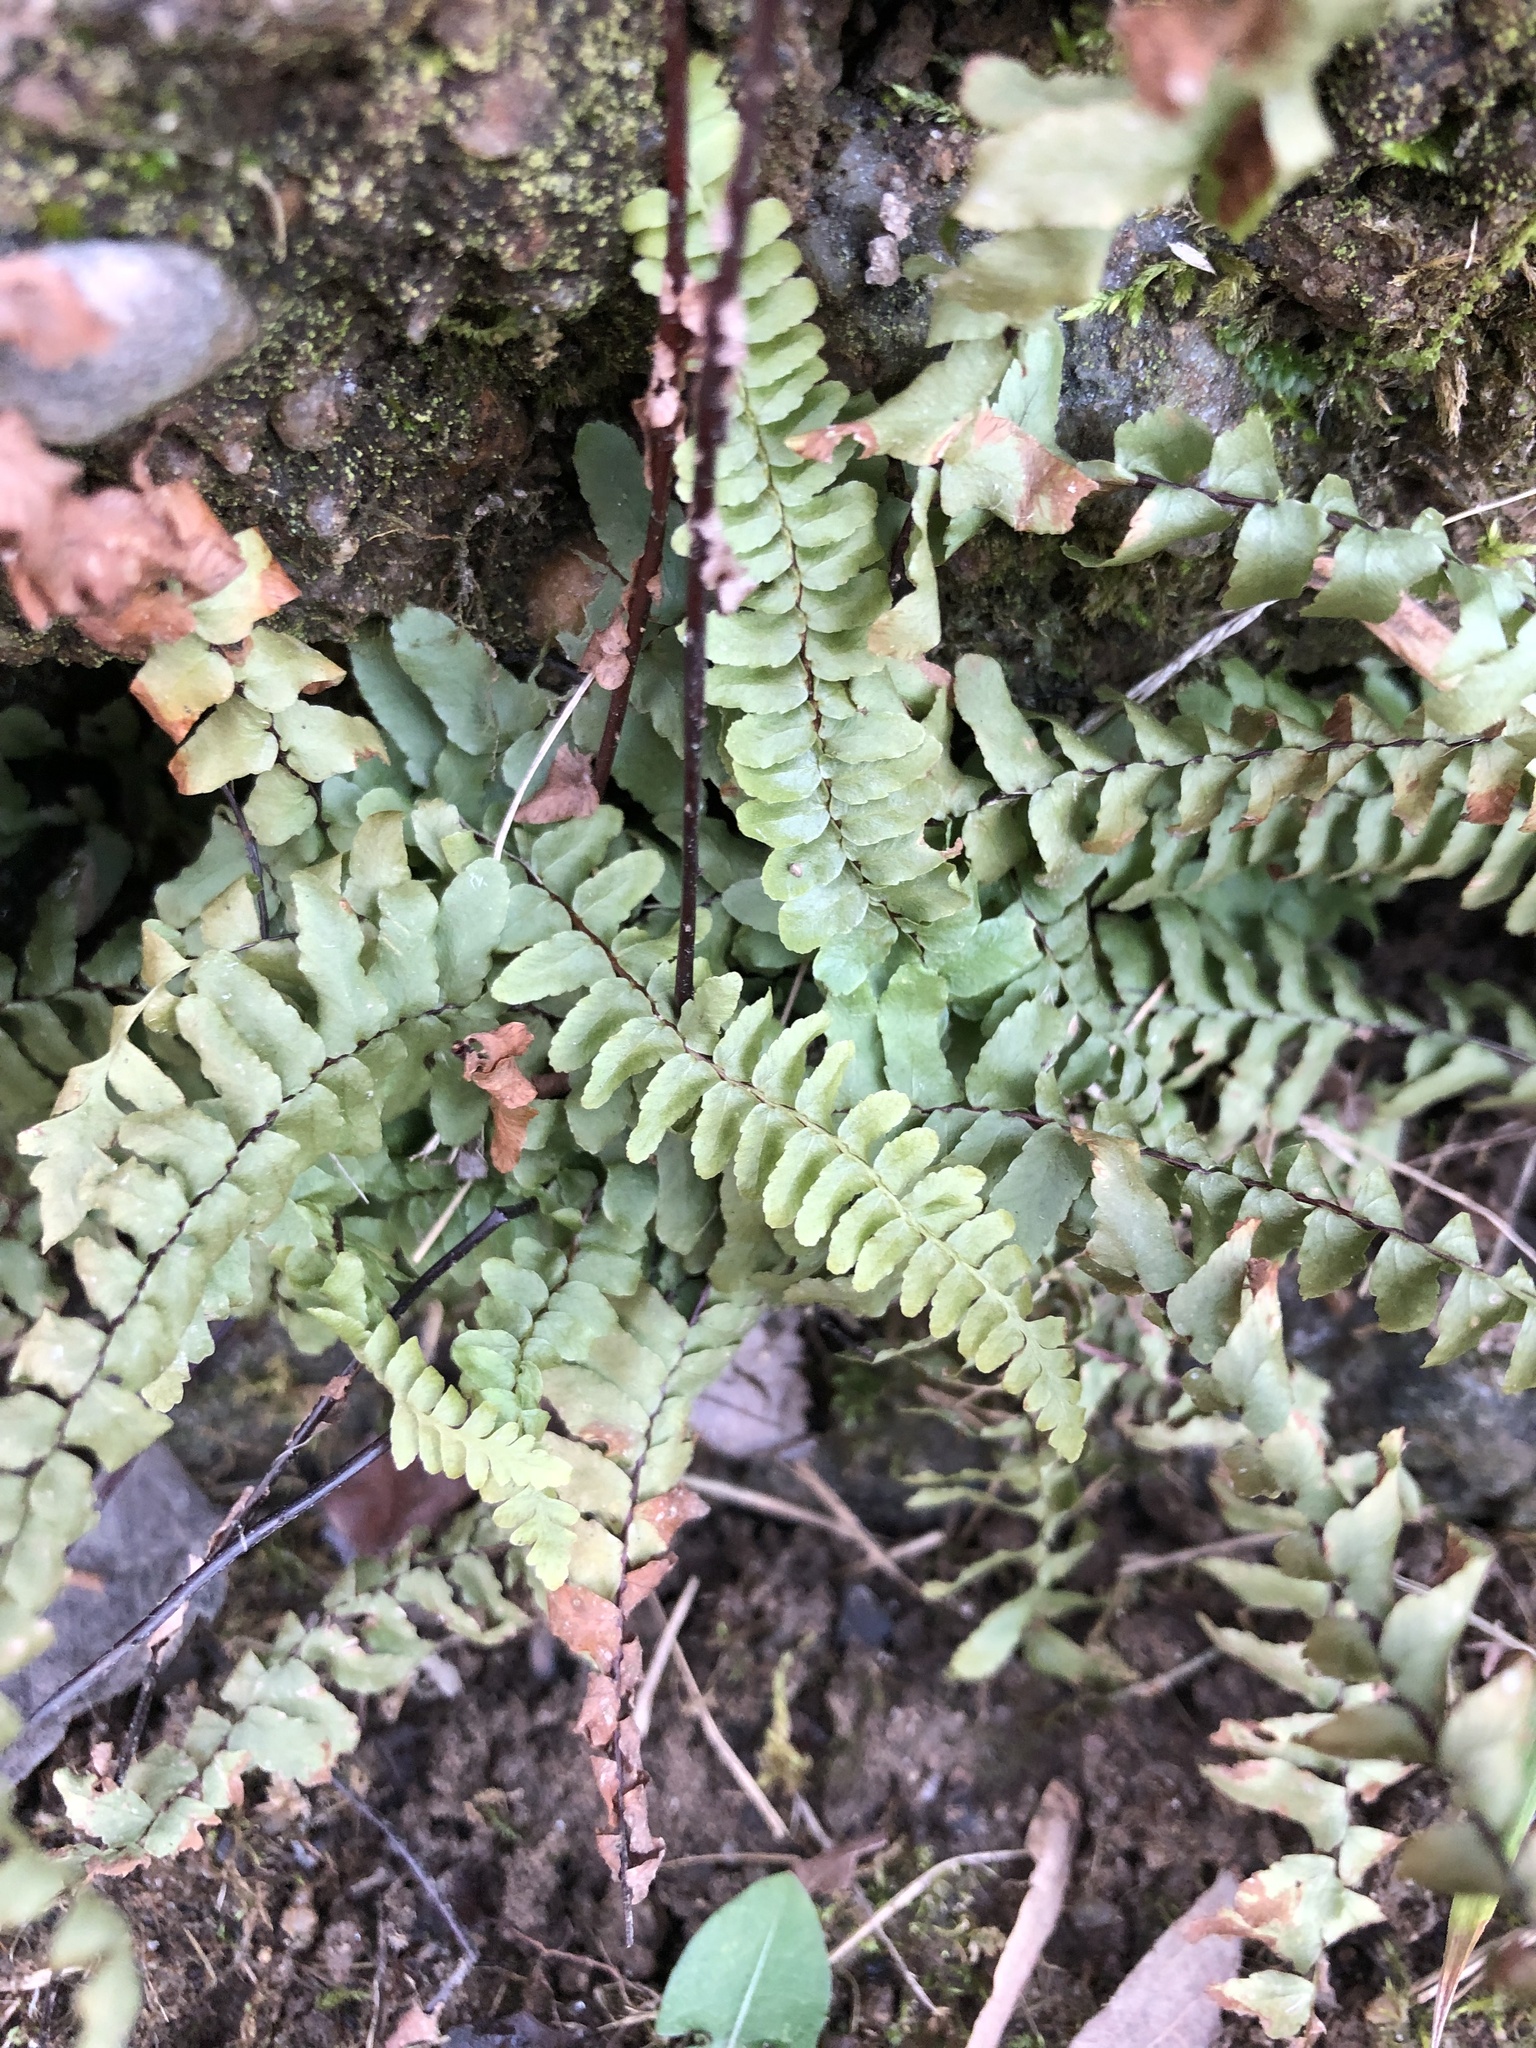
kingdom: Plantae
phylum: Tracheophyta
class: Polypodiopsida
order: Polypodiales
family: Aspleniaceae
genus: Asplenium
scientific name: Asplenium platyneuron
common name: Ebony spleenwort
